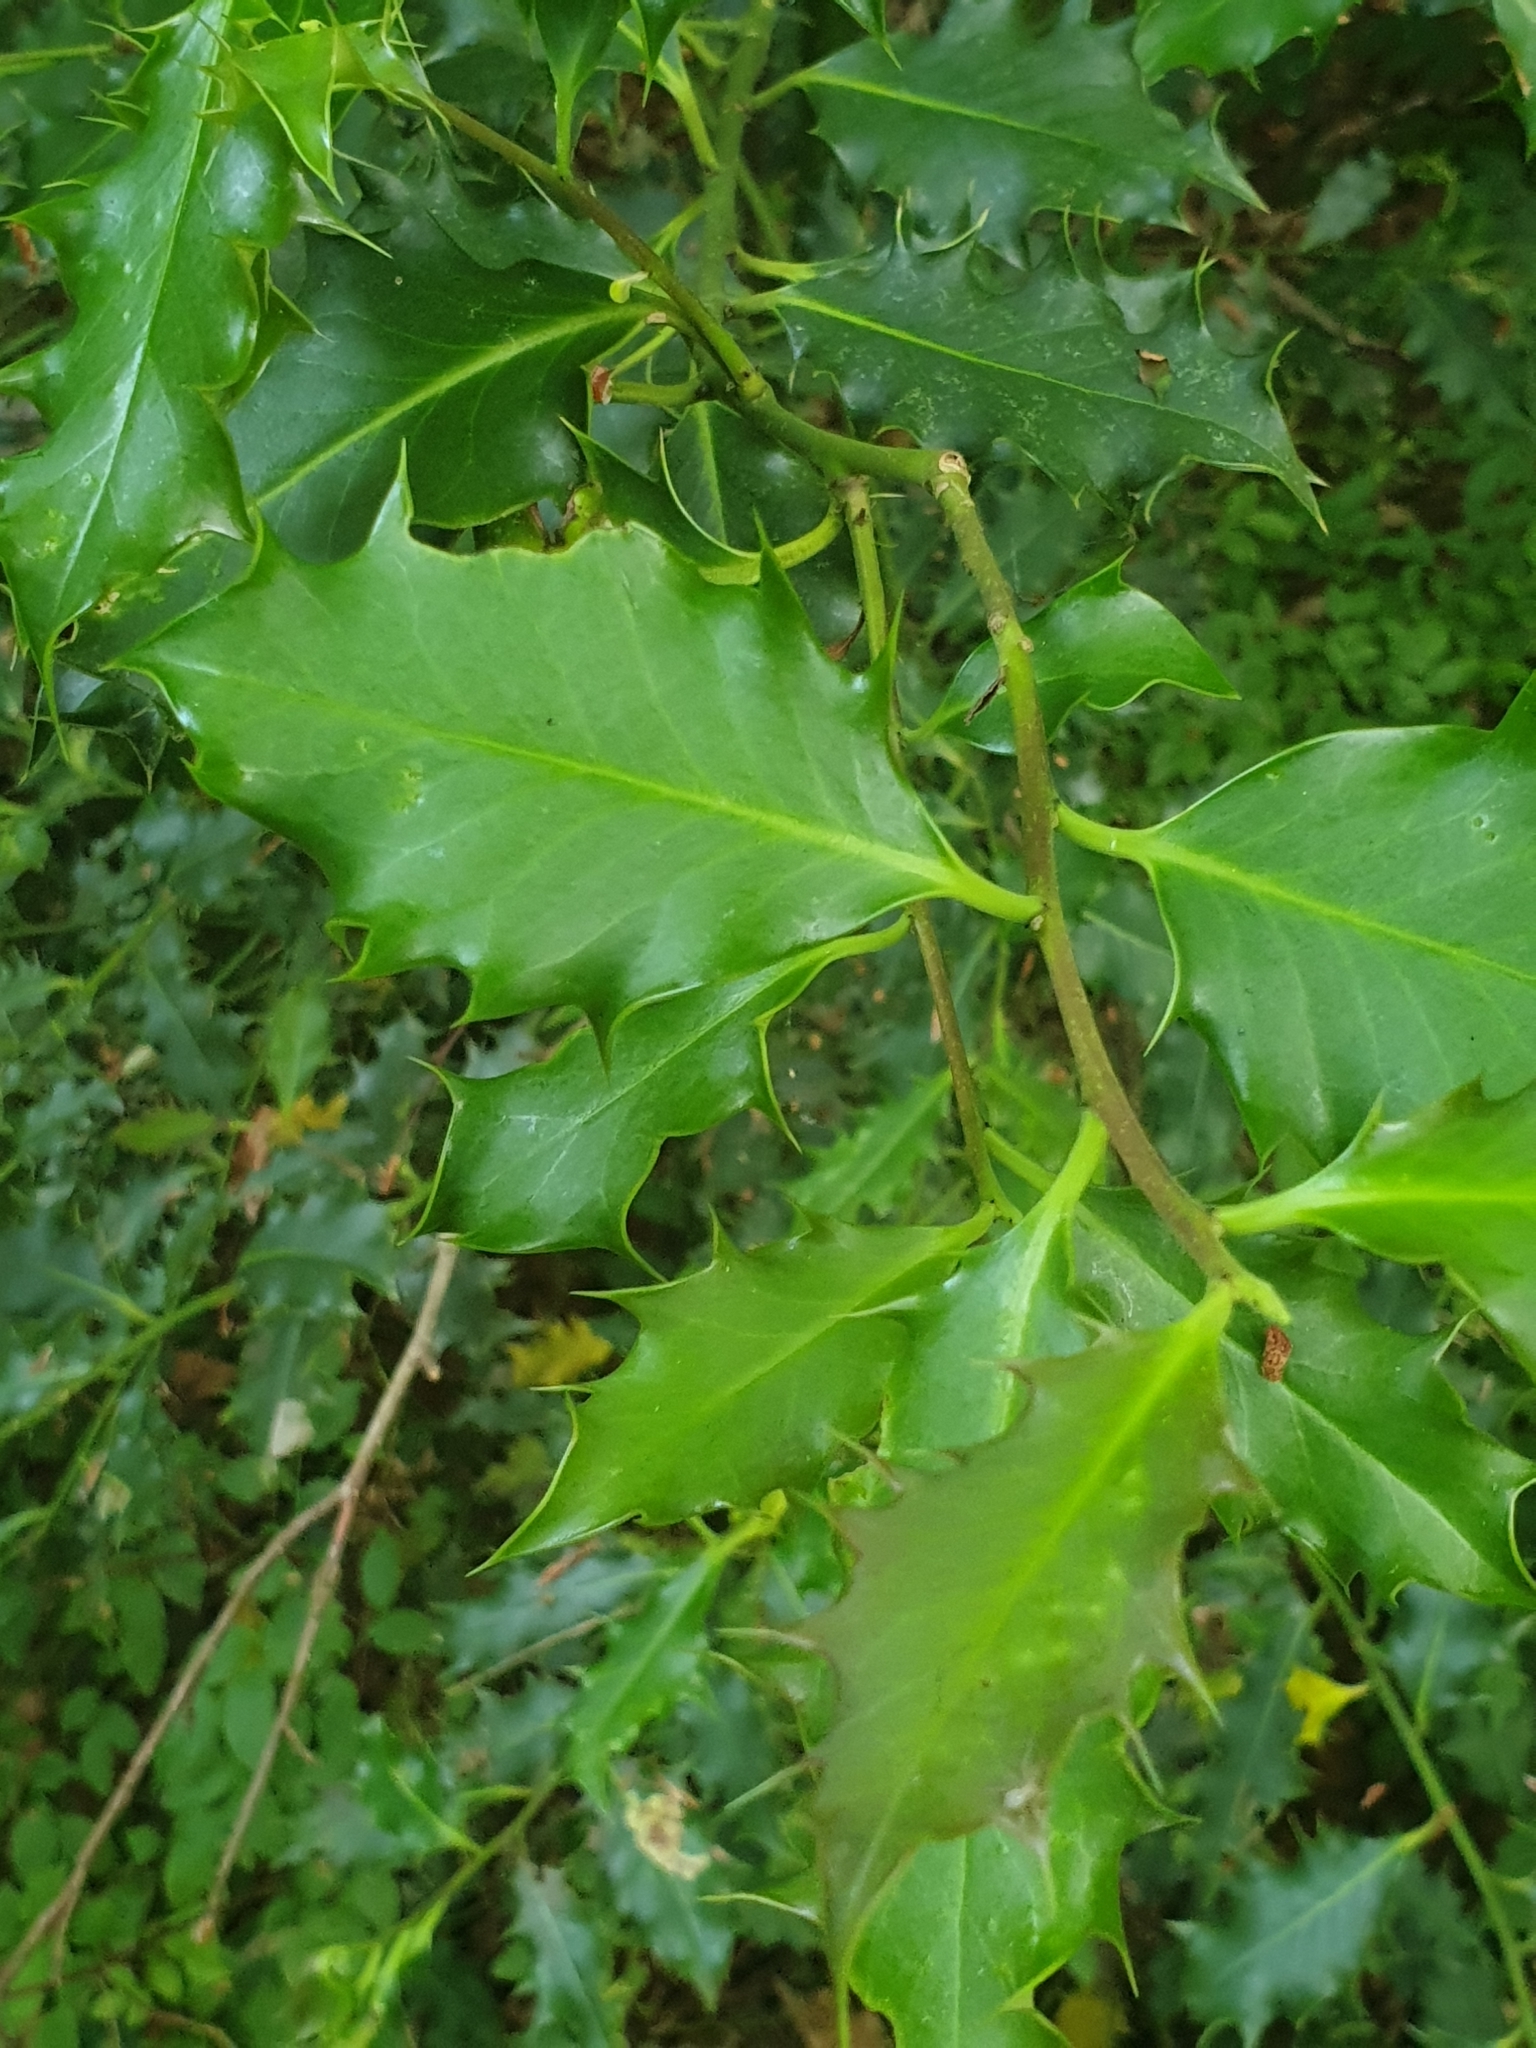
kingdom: Plantae
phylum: Tracheophyta
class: Magnoliopsida
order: Aquifoliales
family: Aquifoliaceae
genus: Ilex
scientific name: Ilex aquifolium
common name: English holly
